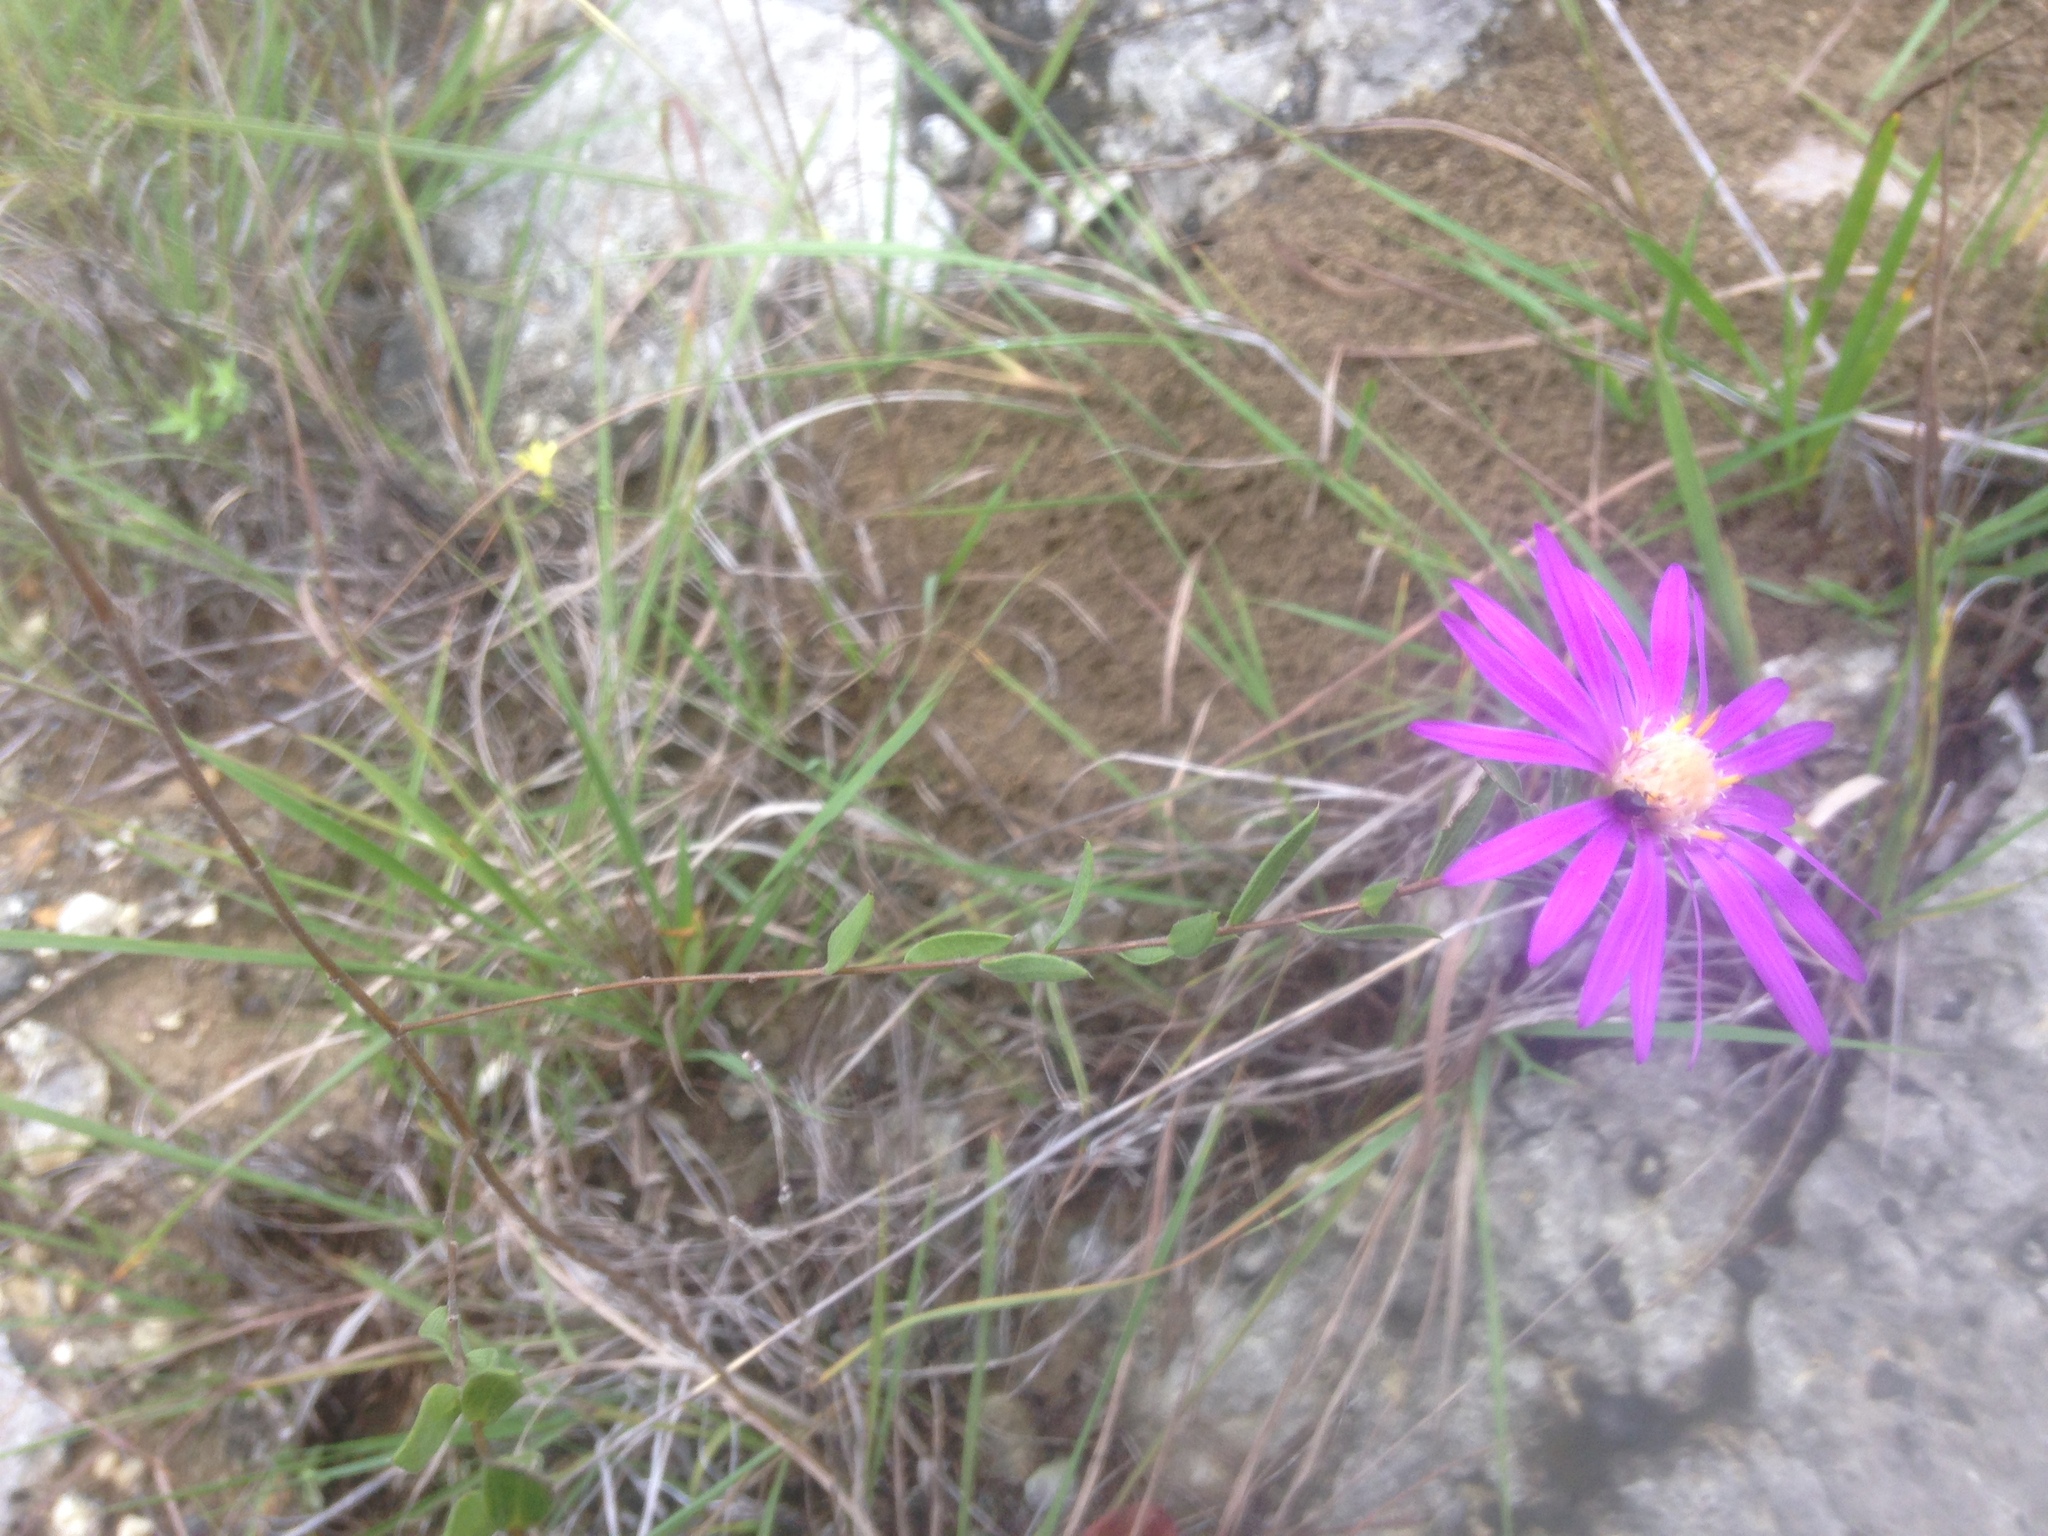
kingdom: Plantae
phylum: Tracheophyta
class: Magnoliopsida
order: Asterales
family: Asteraceae
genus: Symphyotrichum
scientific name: Symphyotrichum pratense
